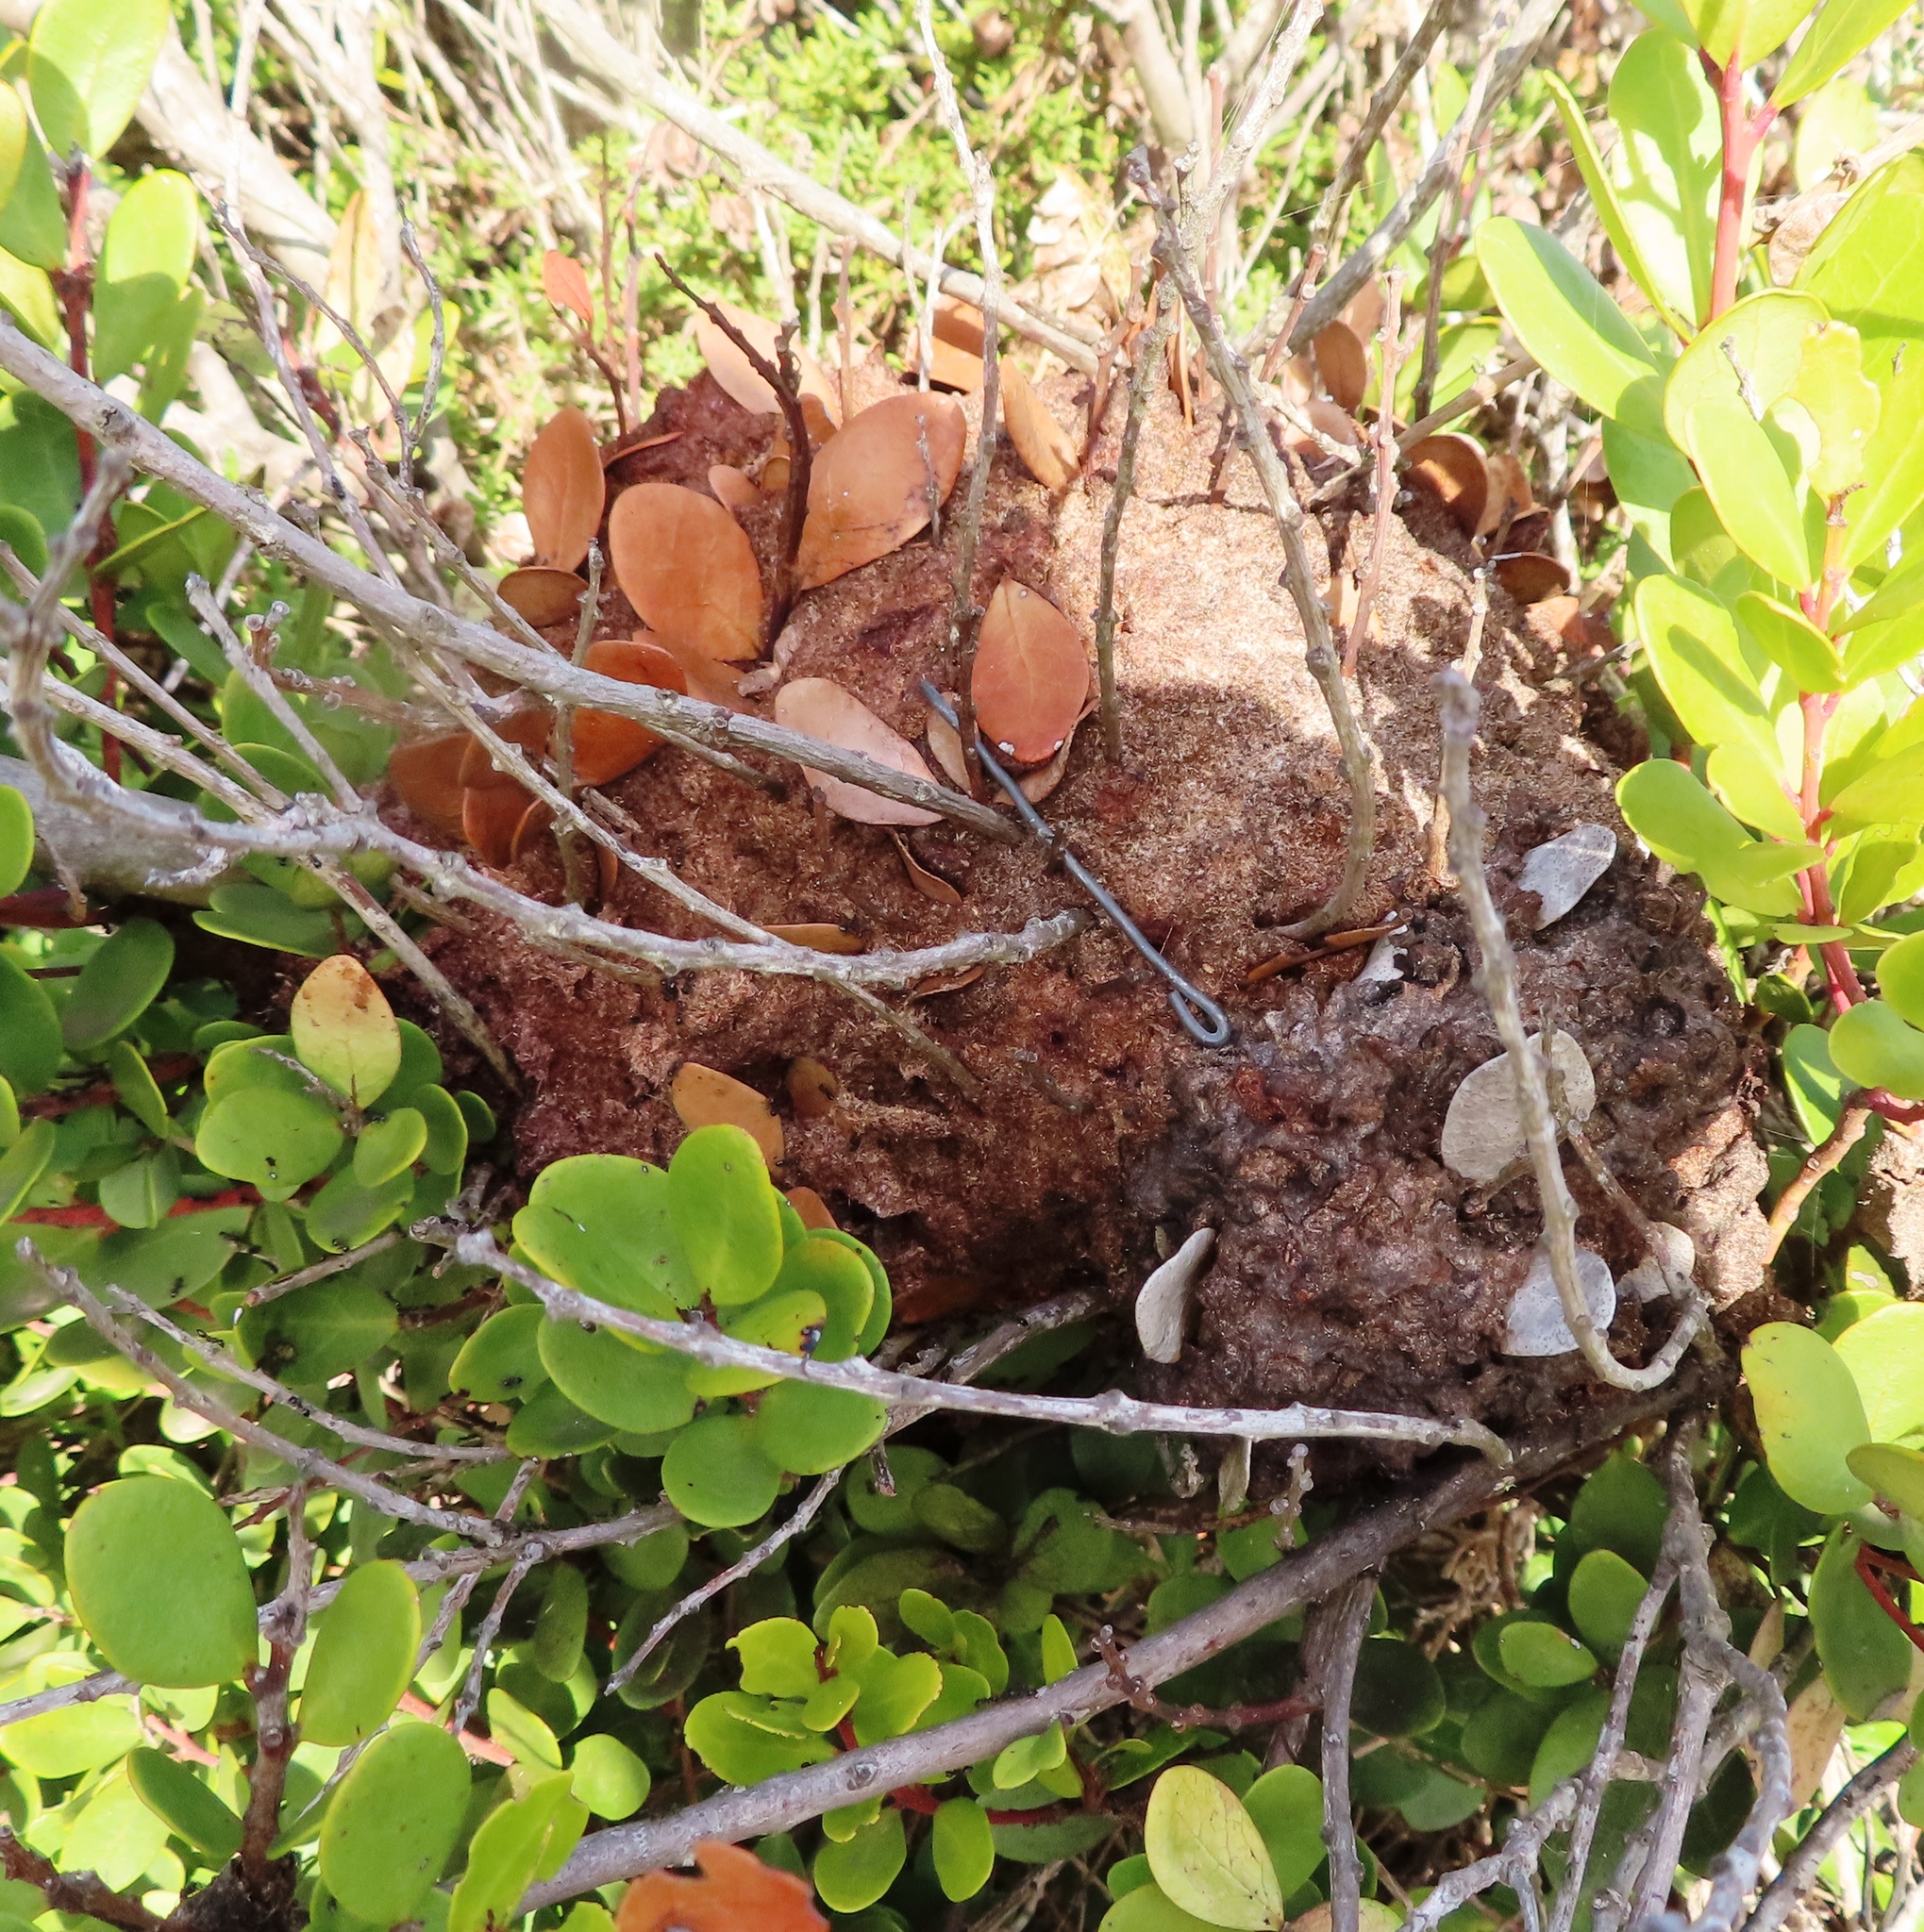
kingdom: Animalia
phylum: Arthropoda
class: Insecta
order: Hymenoptera
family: Formicidae
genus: Crematogaster
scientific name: Crematogaster peringueyi
